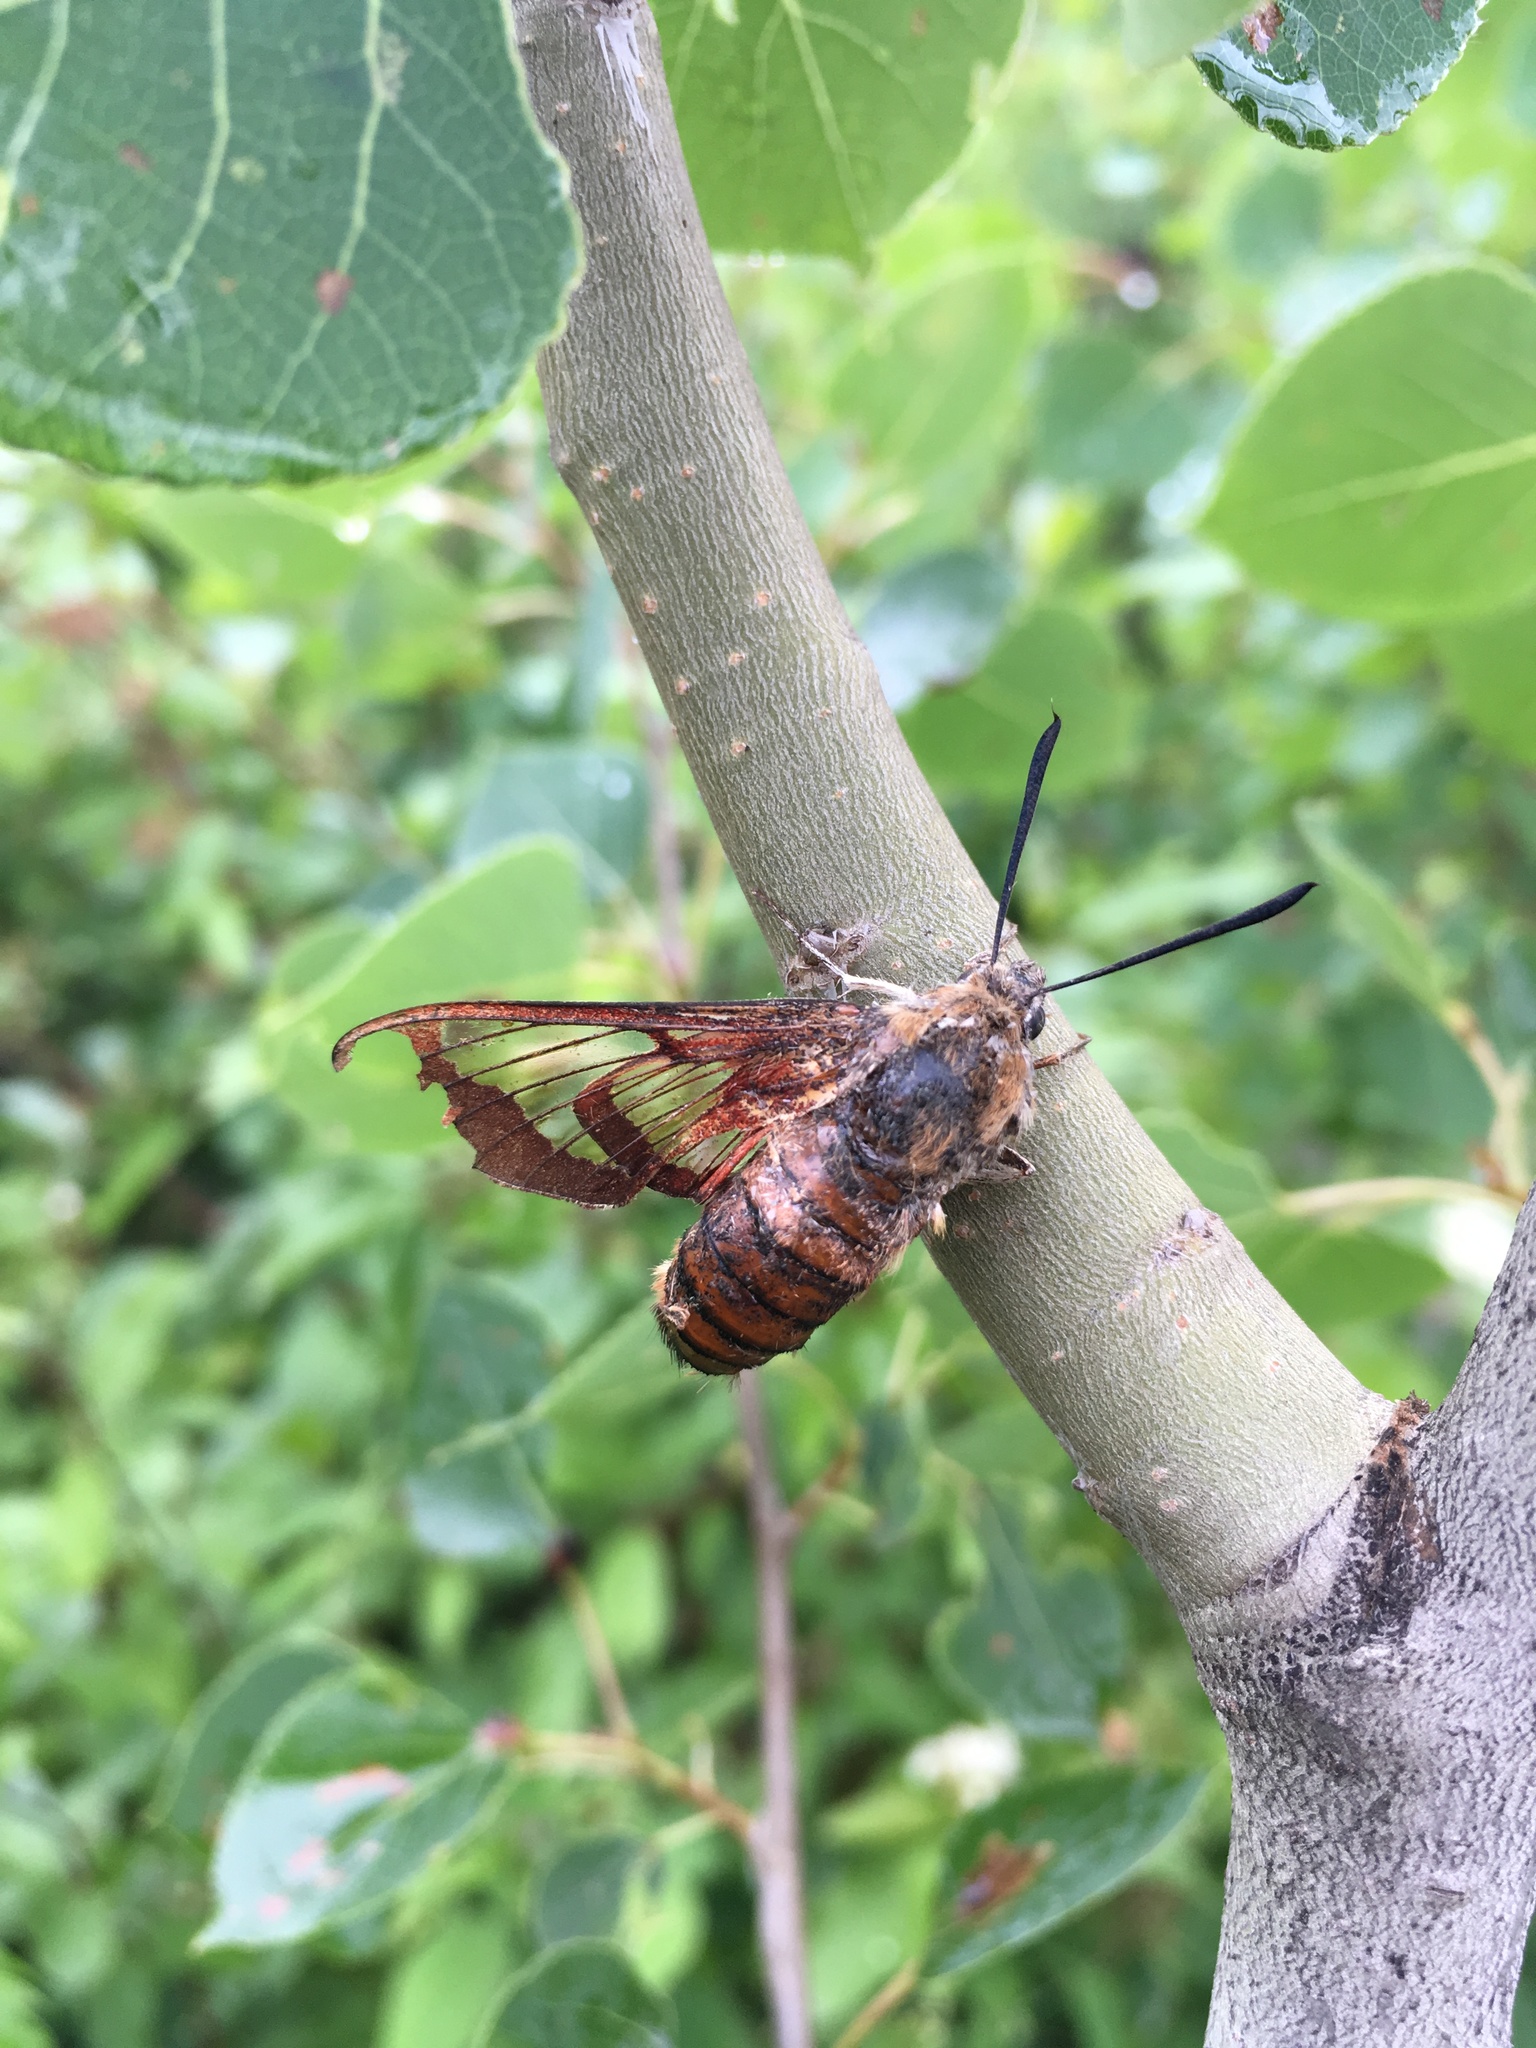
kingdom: Animalia
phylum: Arthropoda
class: Insecta
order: Lepidoptera
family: Sphingidae
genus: Hemaris
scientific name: Hemaris thysbe
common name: Common clear-wing
